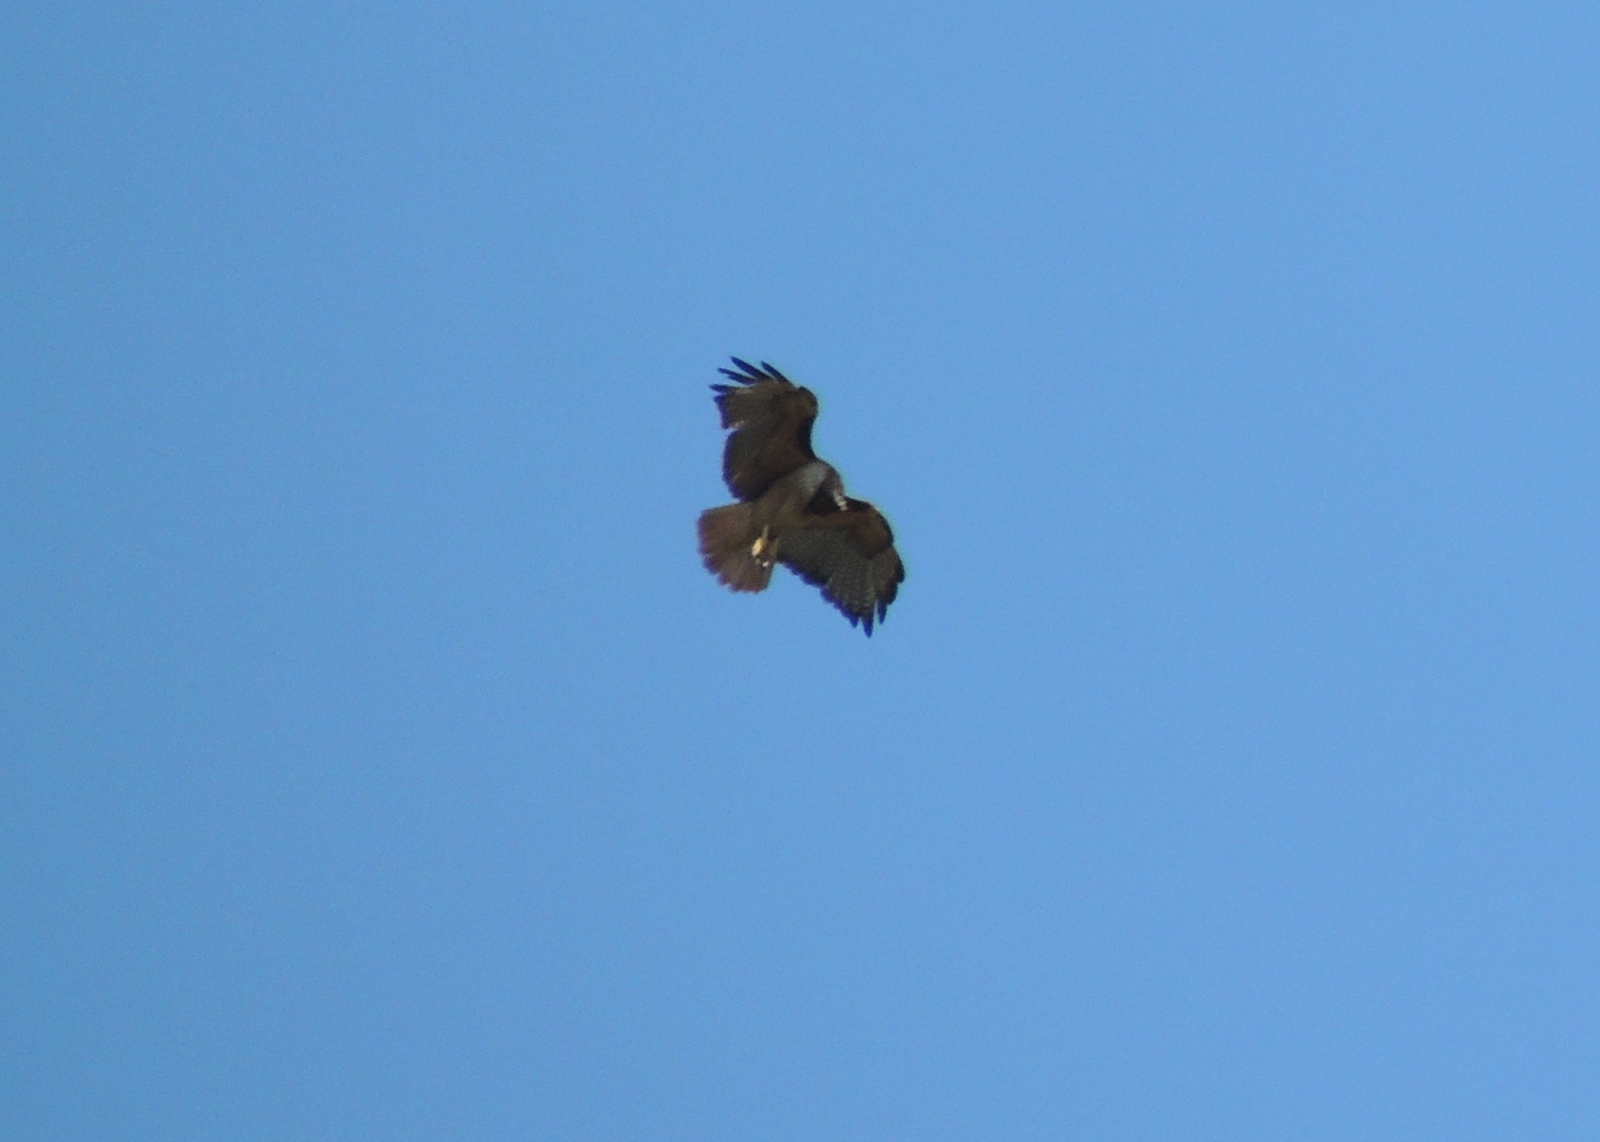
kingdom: Animalia
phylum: Chordata
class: Aves
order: Accipitriformes
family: Accipitridae
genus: Buteo
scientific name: Buteo jamaicensis
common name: Red-tailed hawk
